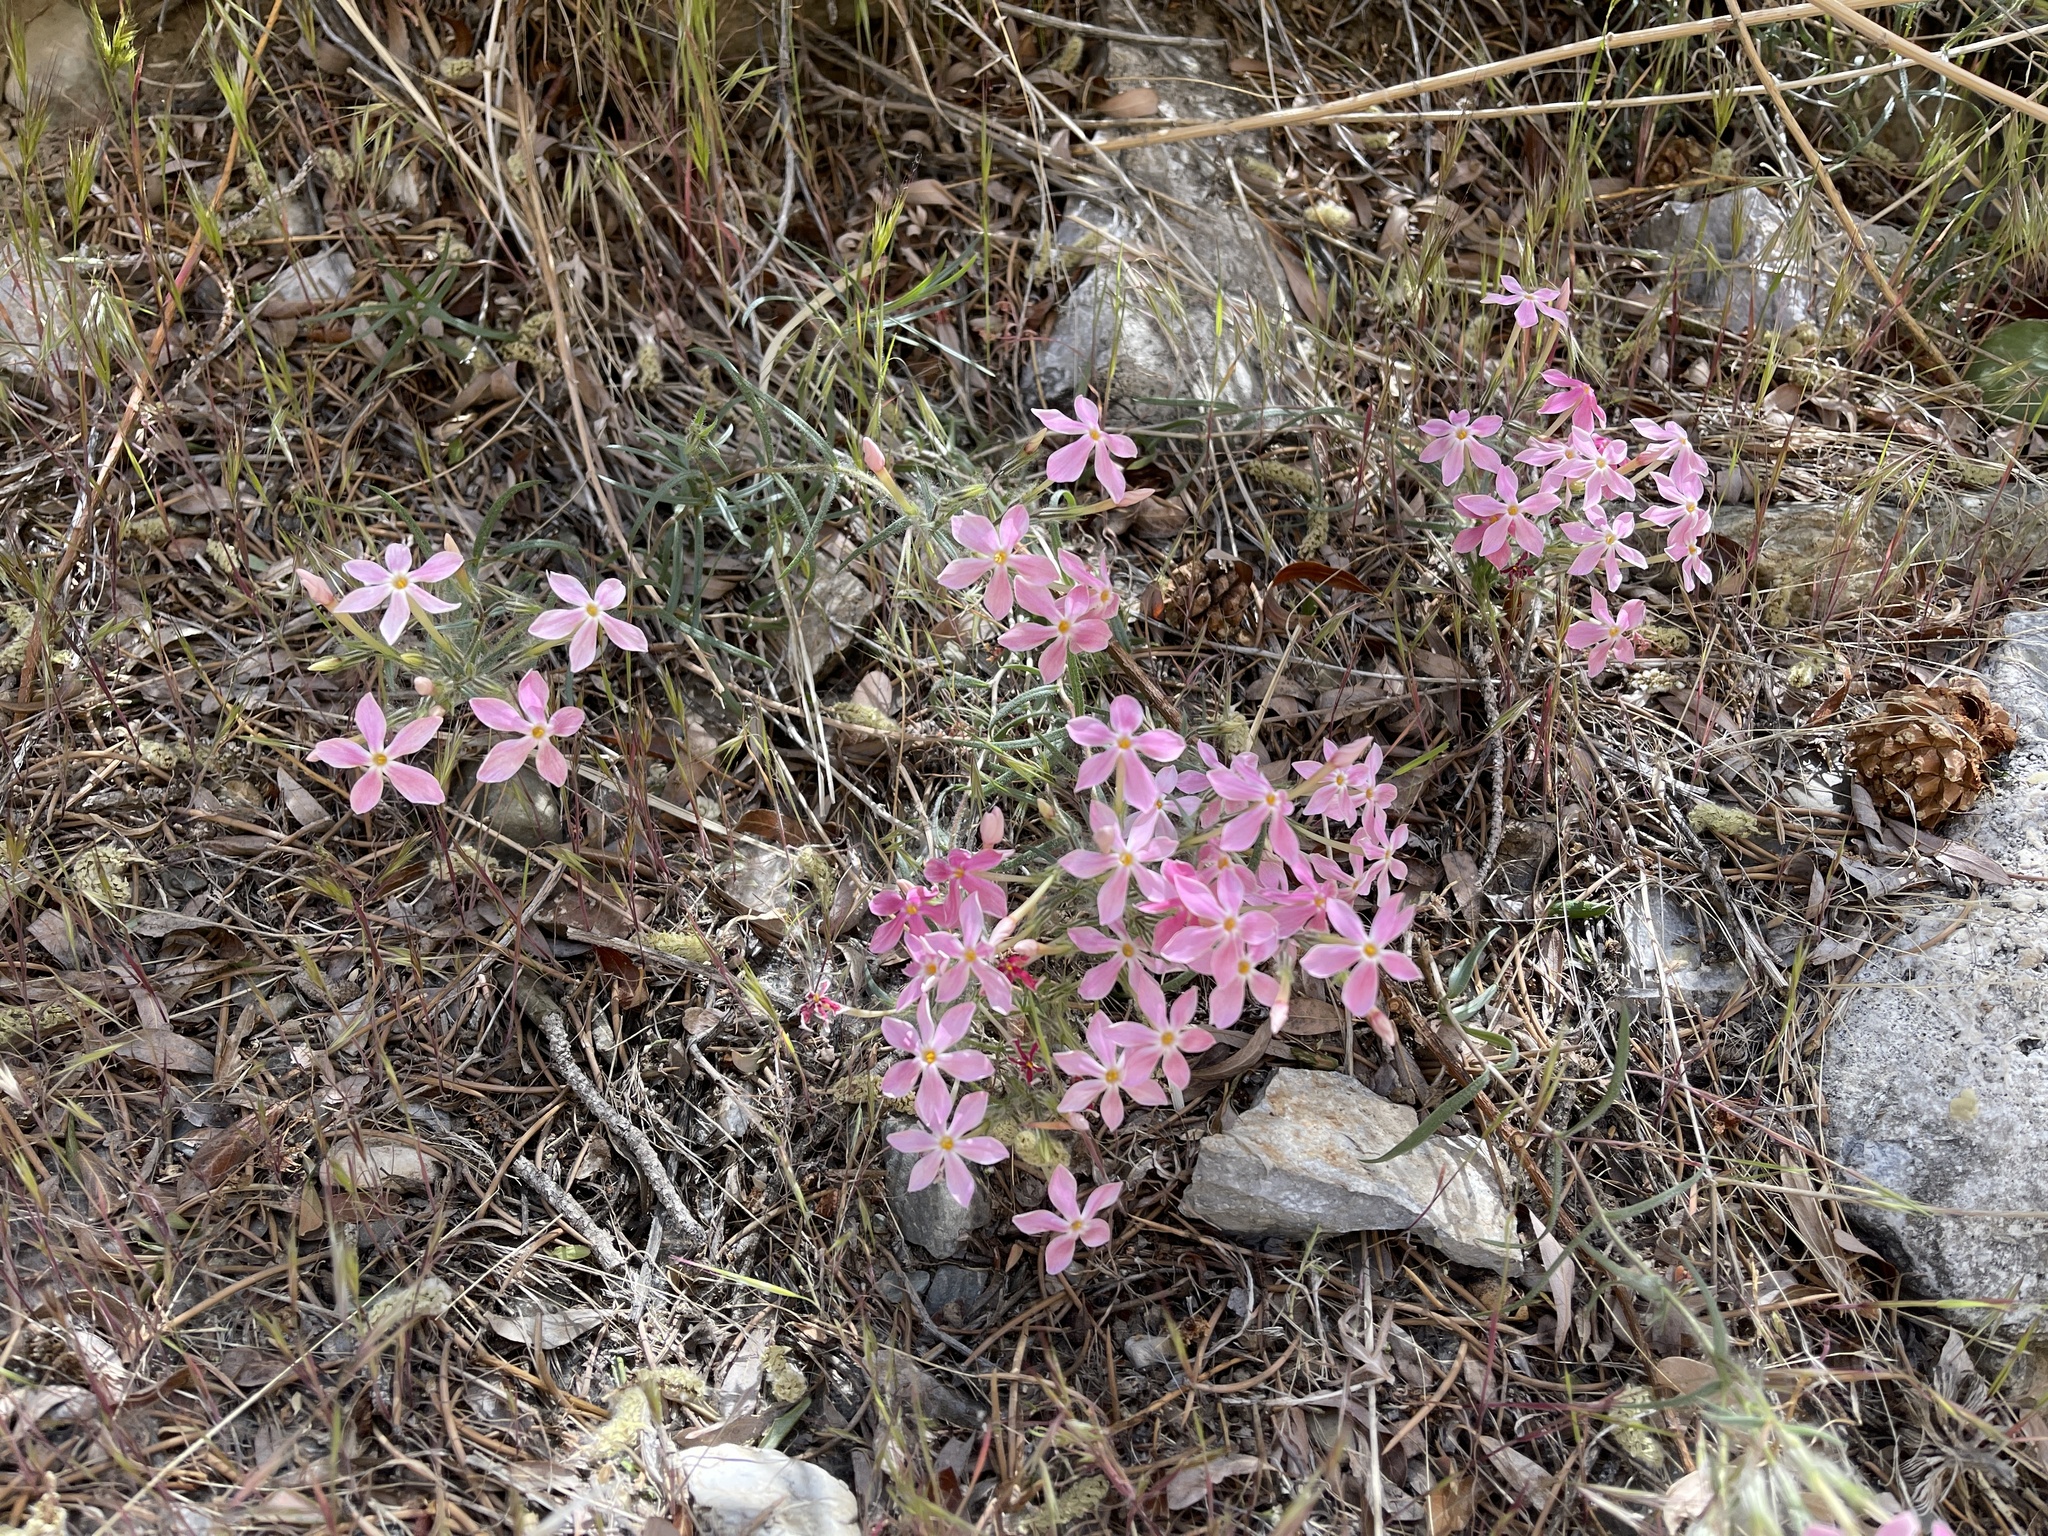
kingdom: Plantae
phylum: Tracheophyta
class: Magnoliopsida
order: Ericales
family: Polemoniaceae
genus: Phlox
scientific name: Phlox longifolia
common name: Longleaf phlox
